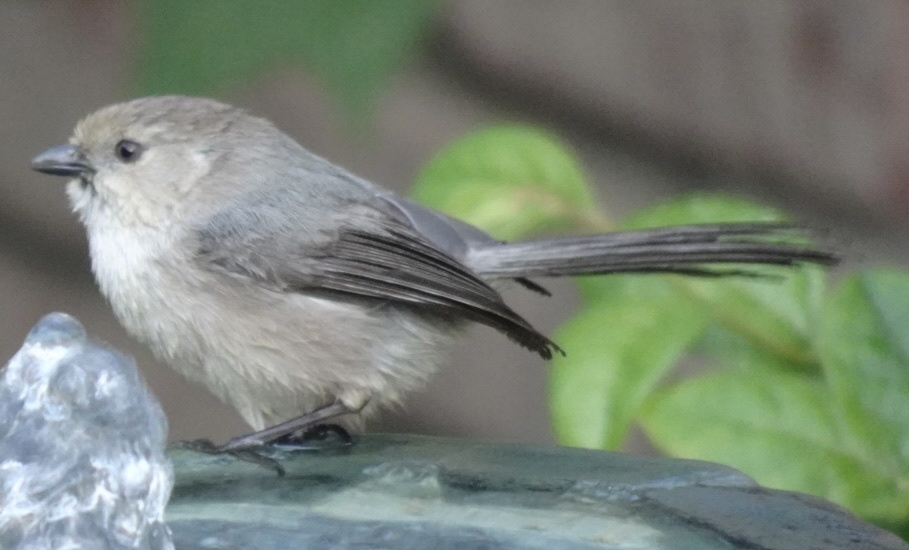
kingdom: Animalia
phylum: Chordata
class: Aves
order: Passeriformes
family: Aegithalidae
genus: Psaltriparus
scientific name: Psaltriparus minimus
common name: American bushtit
